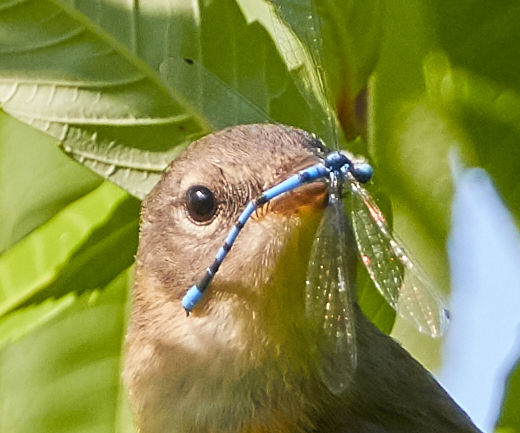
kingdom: Animalia
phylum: Arthropoda
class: Insecta
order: Odonata
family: Coenagrionidae
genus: Enallagma
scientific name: Enallagma civile
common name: Damselfly
